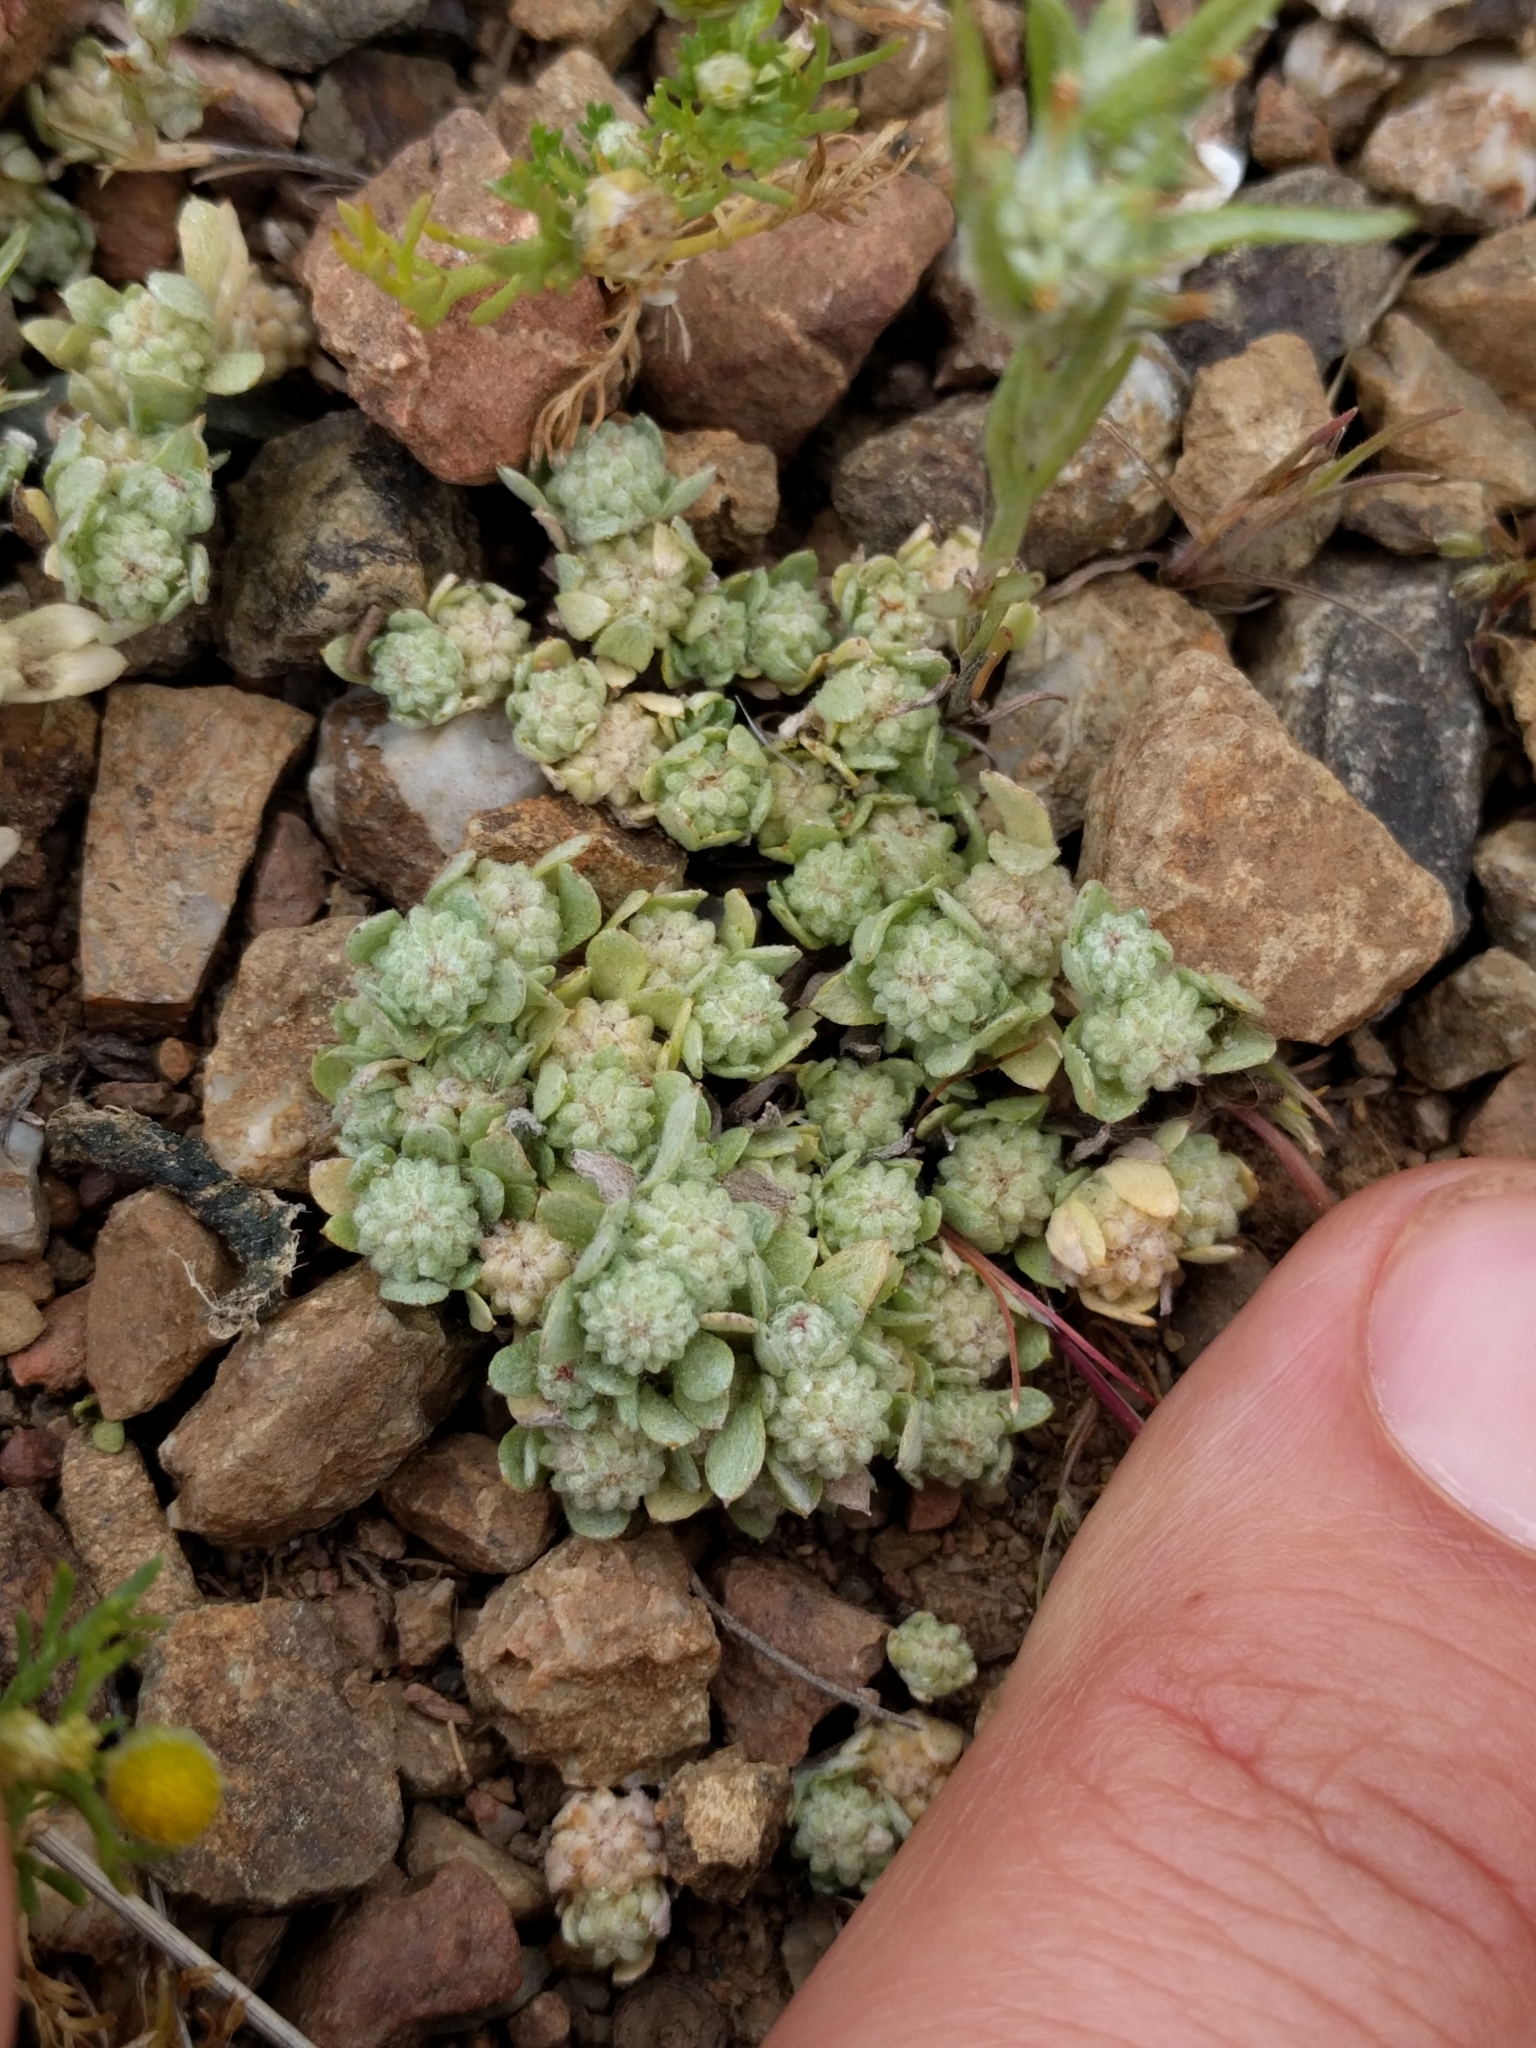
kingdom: Plantae
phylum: Tracheophyta
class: Magnoliopsida
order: Asterales
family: Asteraceae
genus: Psilocarphus
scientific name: Psilocarphus tenellus
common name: Slender woolly-marbles
